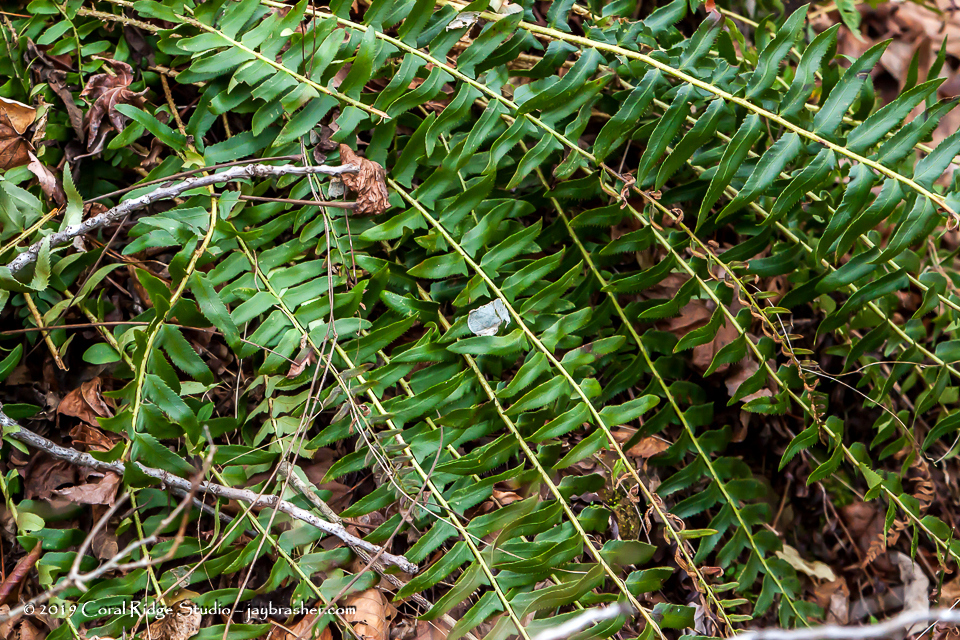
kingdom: Plantae
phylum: Tracheophyta
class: Polypodiopsida
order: Polypodiales
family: Dryopteridaceae
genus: Polystichum
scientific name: Polystichum acrostichoides
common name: Christmas fern
